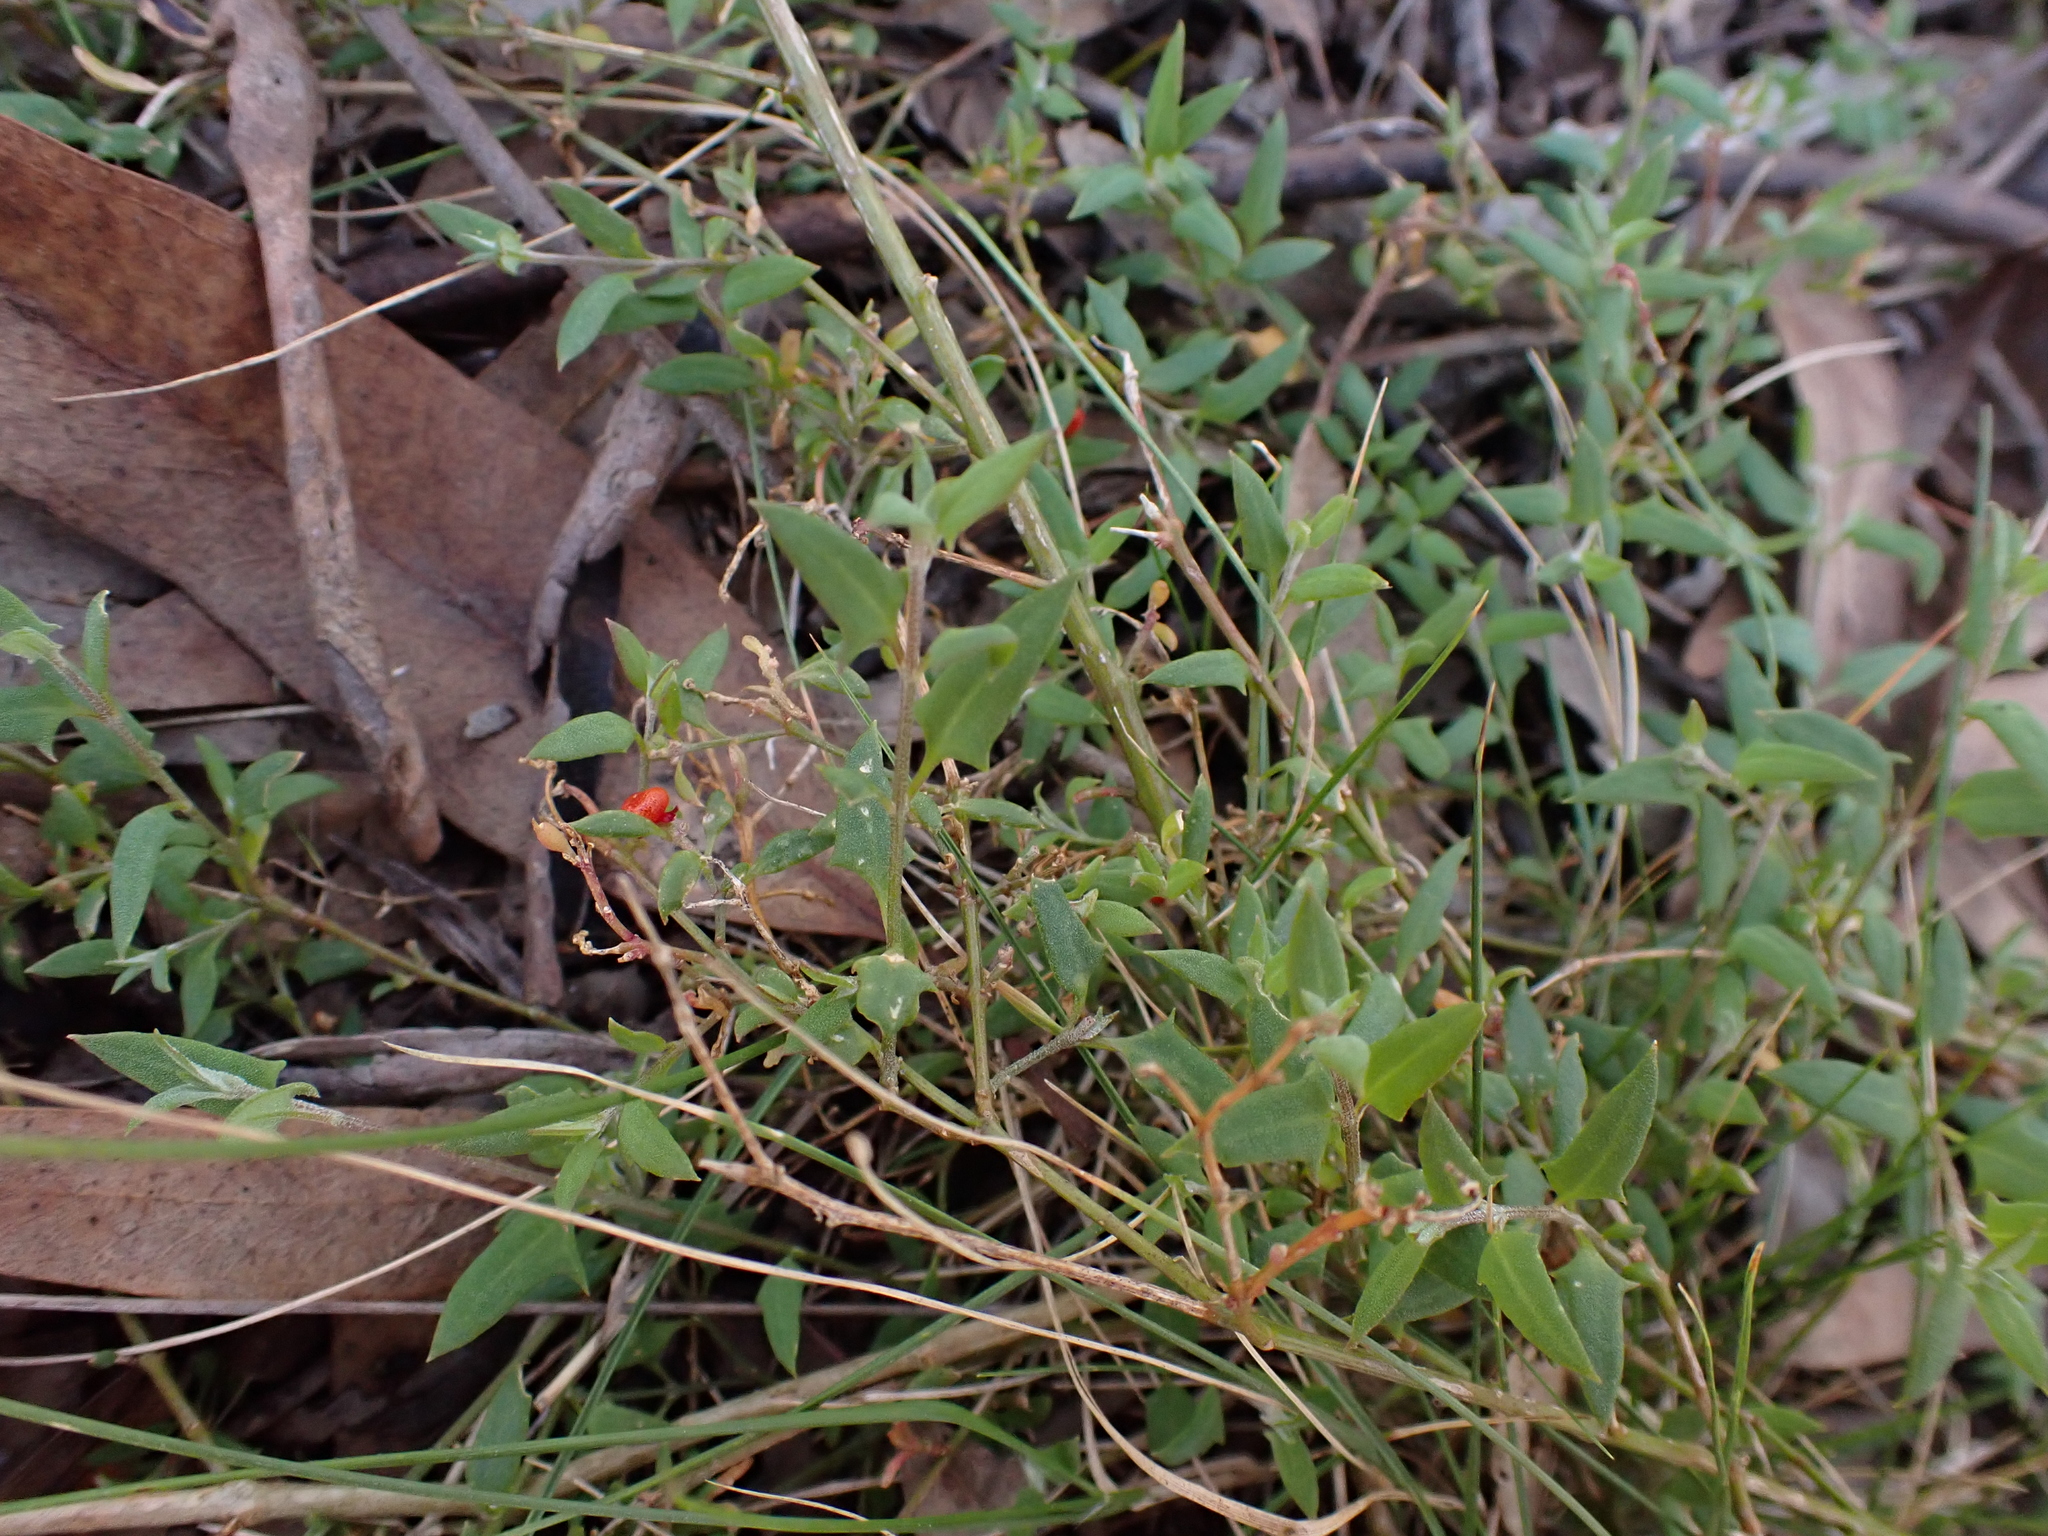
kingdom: Plantae
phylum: Tracheophyta
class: Magnoliopsida
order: Caryophyllales
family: Amaranthaceae
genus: Chenopodium
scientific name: Chenopodium nutans
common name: Climbing-saltbush
